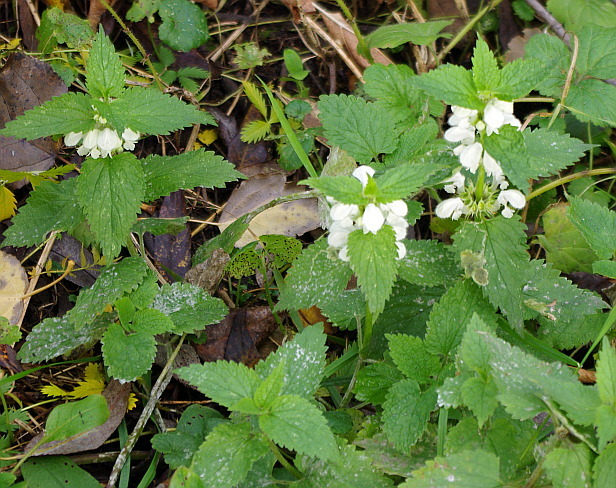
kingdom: Plantae
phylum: Tracheophyta
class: Magnoliopsida
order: Lamiales
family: Lamiaceae
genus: Lamium
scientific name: Lamium album
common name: White dead-nettle
